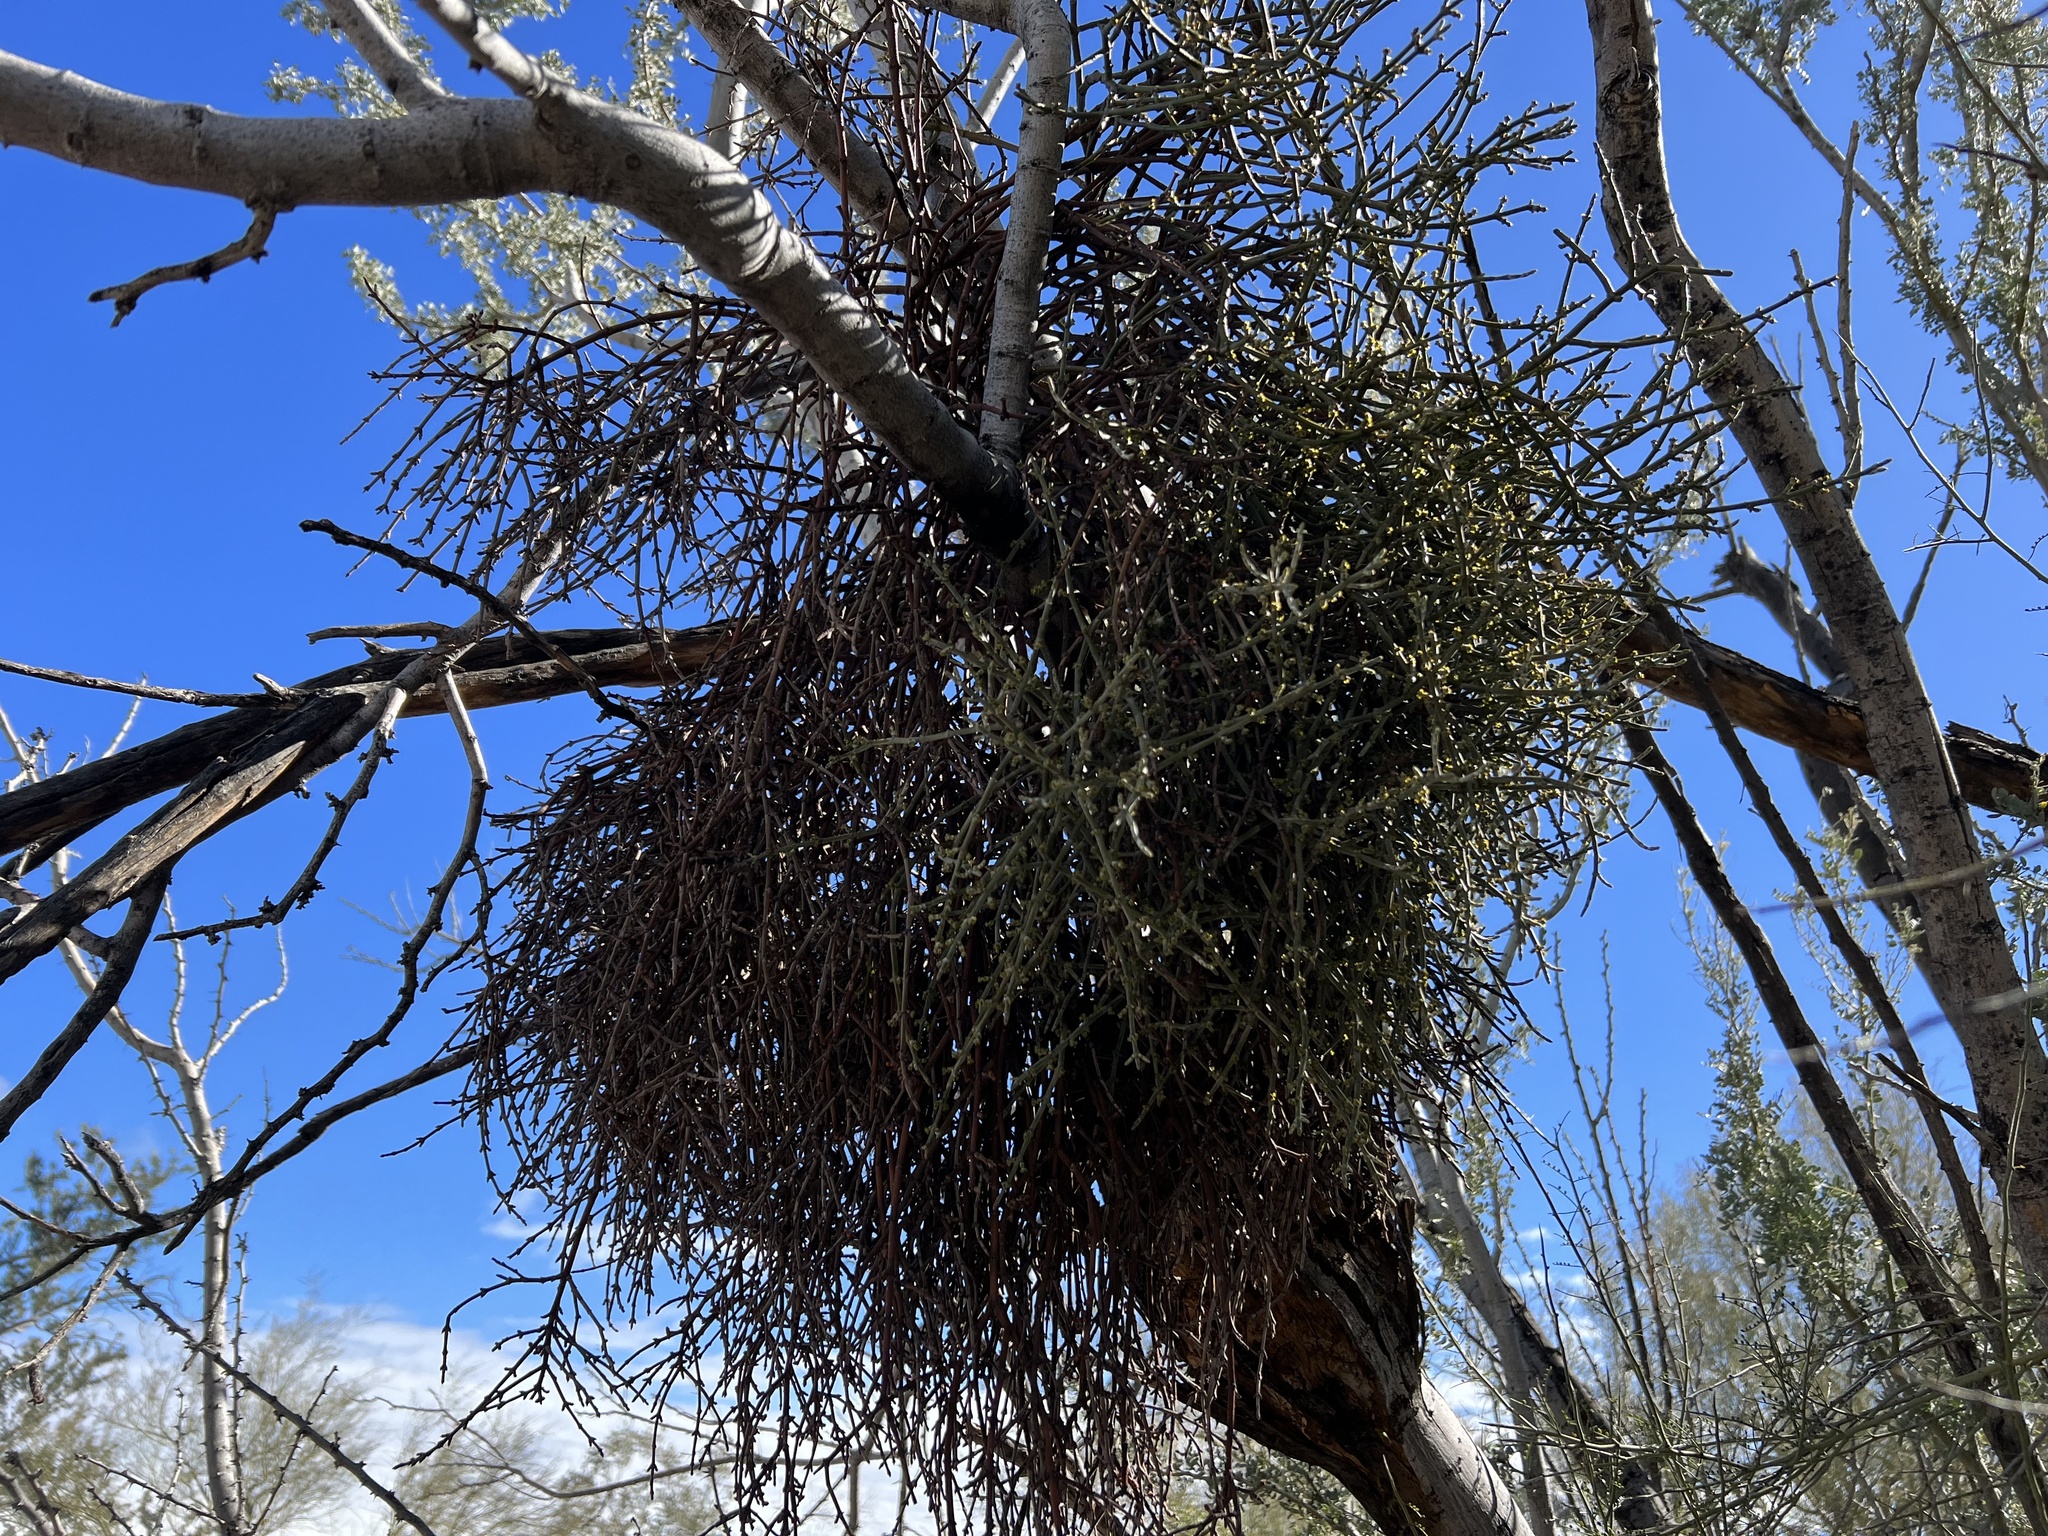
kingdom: Plantae
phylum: Tracheophyta
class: Magnoliopsida
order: Santalales
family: Viscaceae
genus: Phoradendron
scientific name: Phoradendron californicum
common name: Acacia mistletoe
